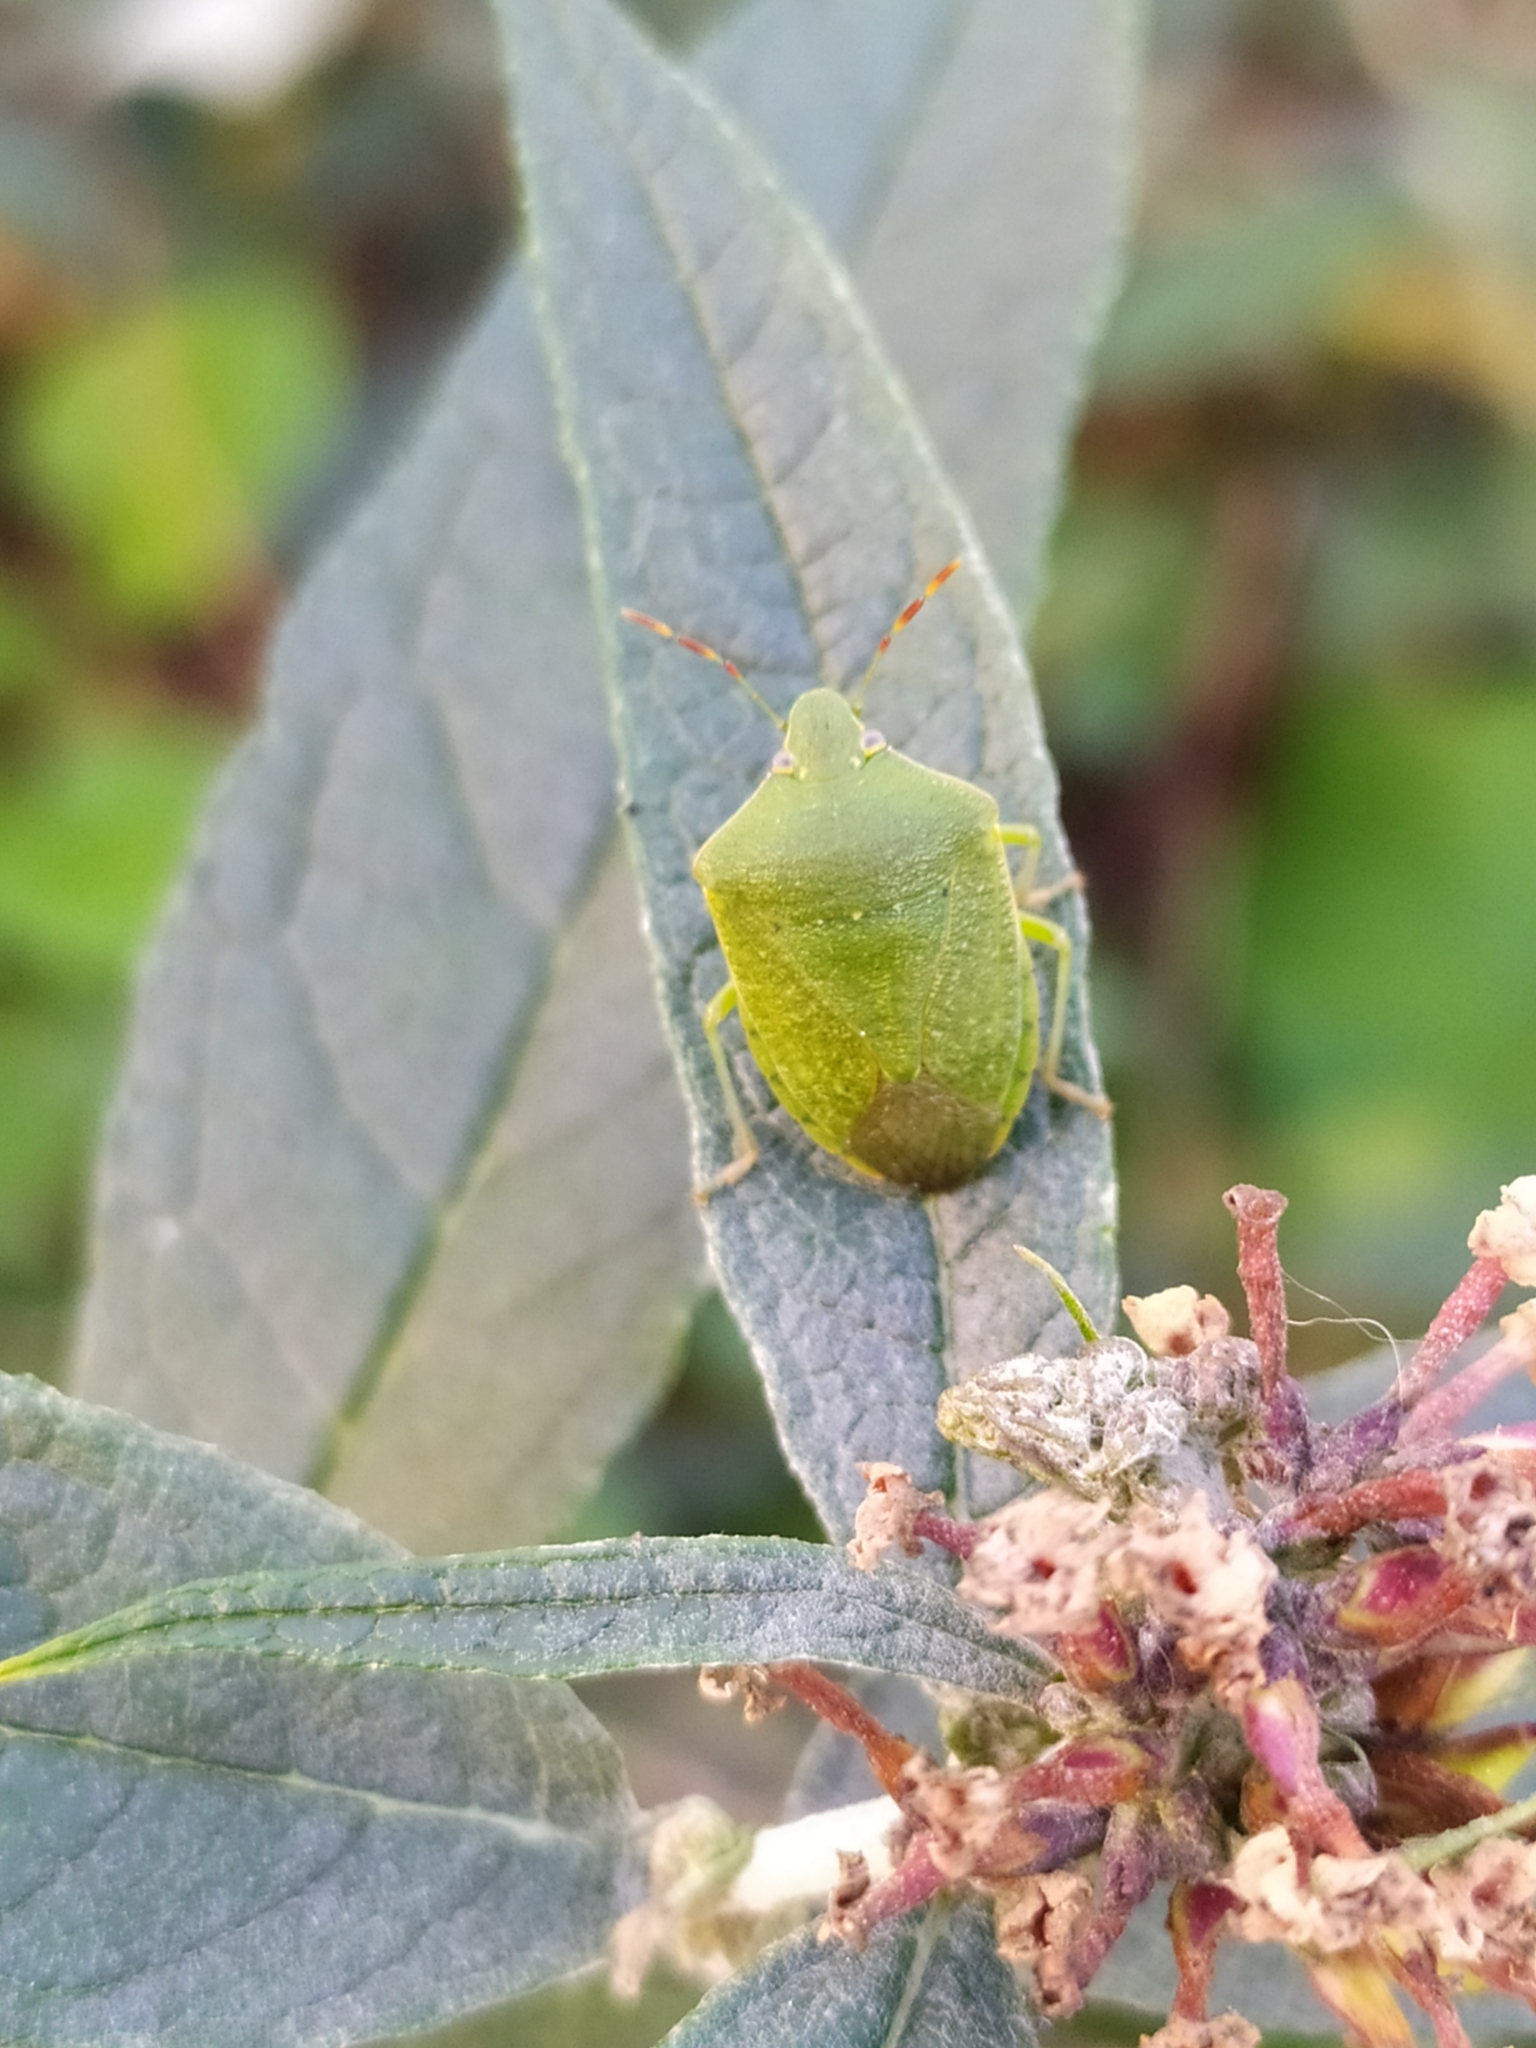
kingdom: Animalia
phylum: Arthropoda
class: Insecta
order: Hemiptera
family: Pentatomidae
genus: Nezara
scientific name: Nezara viridula
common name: Southern green stink bug
